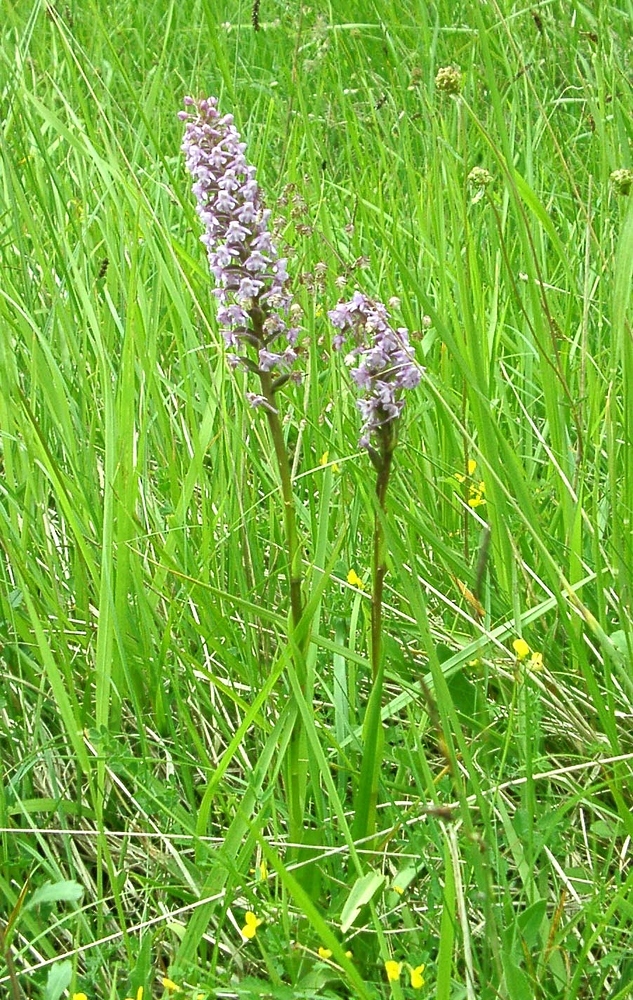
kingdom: Plantae
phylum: Tracheophyta
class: Liliopsida
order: Asparagales
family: Orchidaceae
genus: Gymnadenia
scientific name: Gymnadenia conopsea
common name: Fragrant orchid
